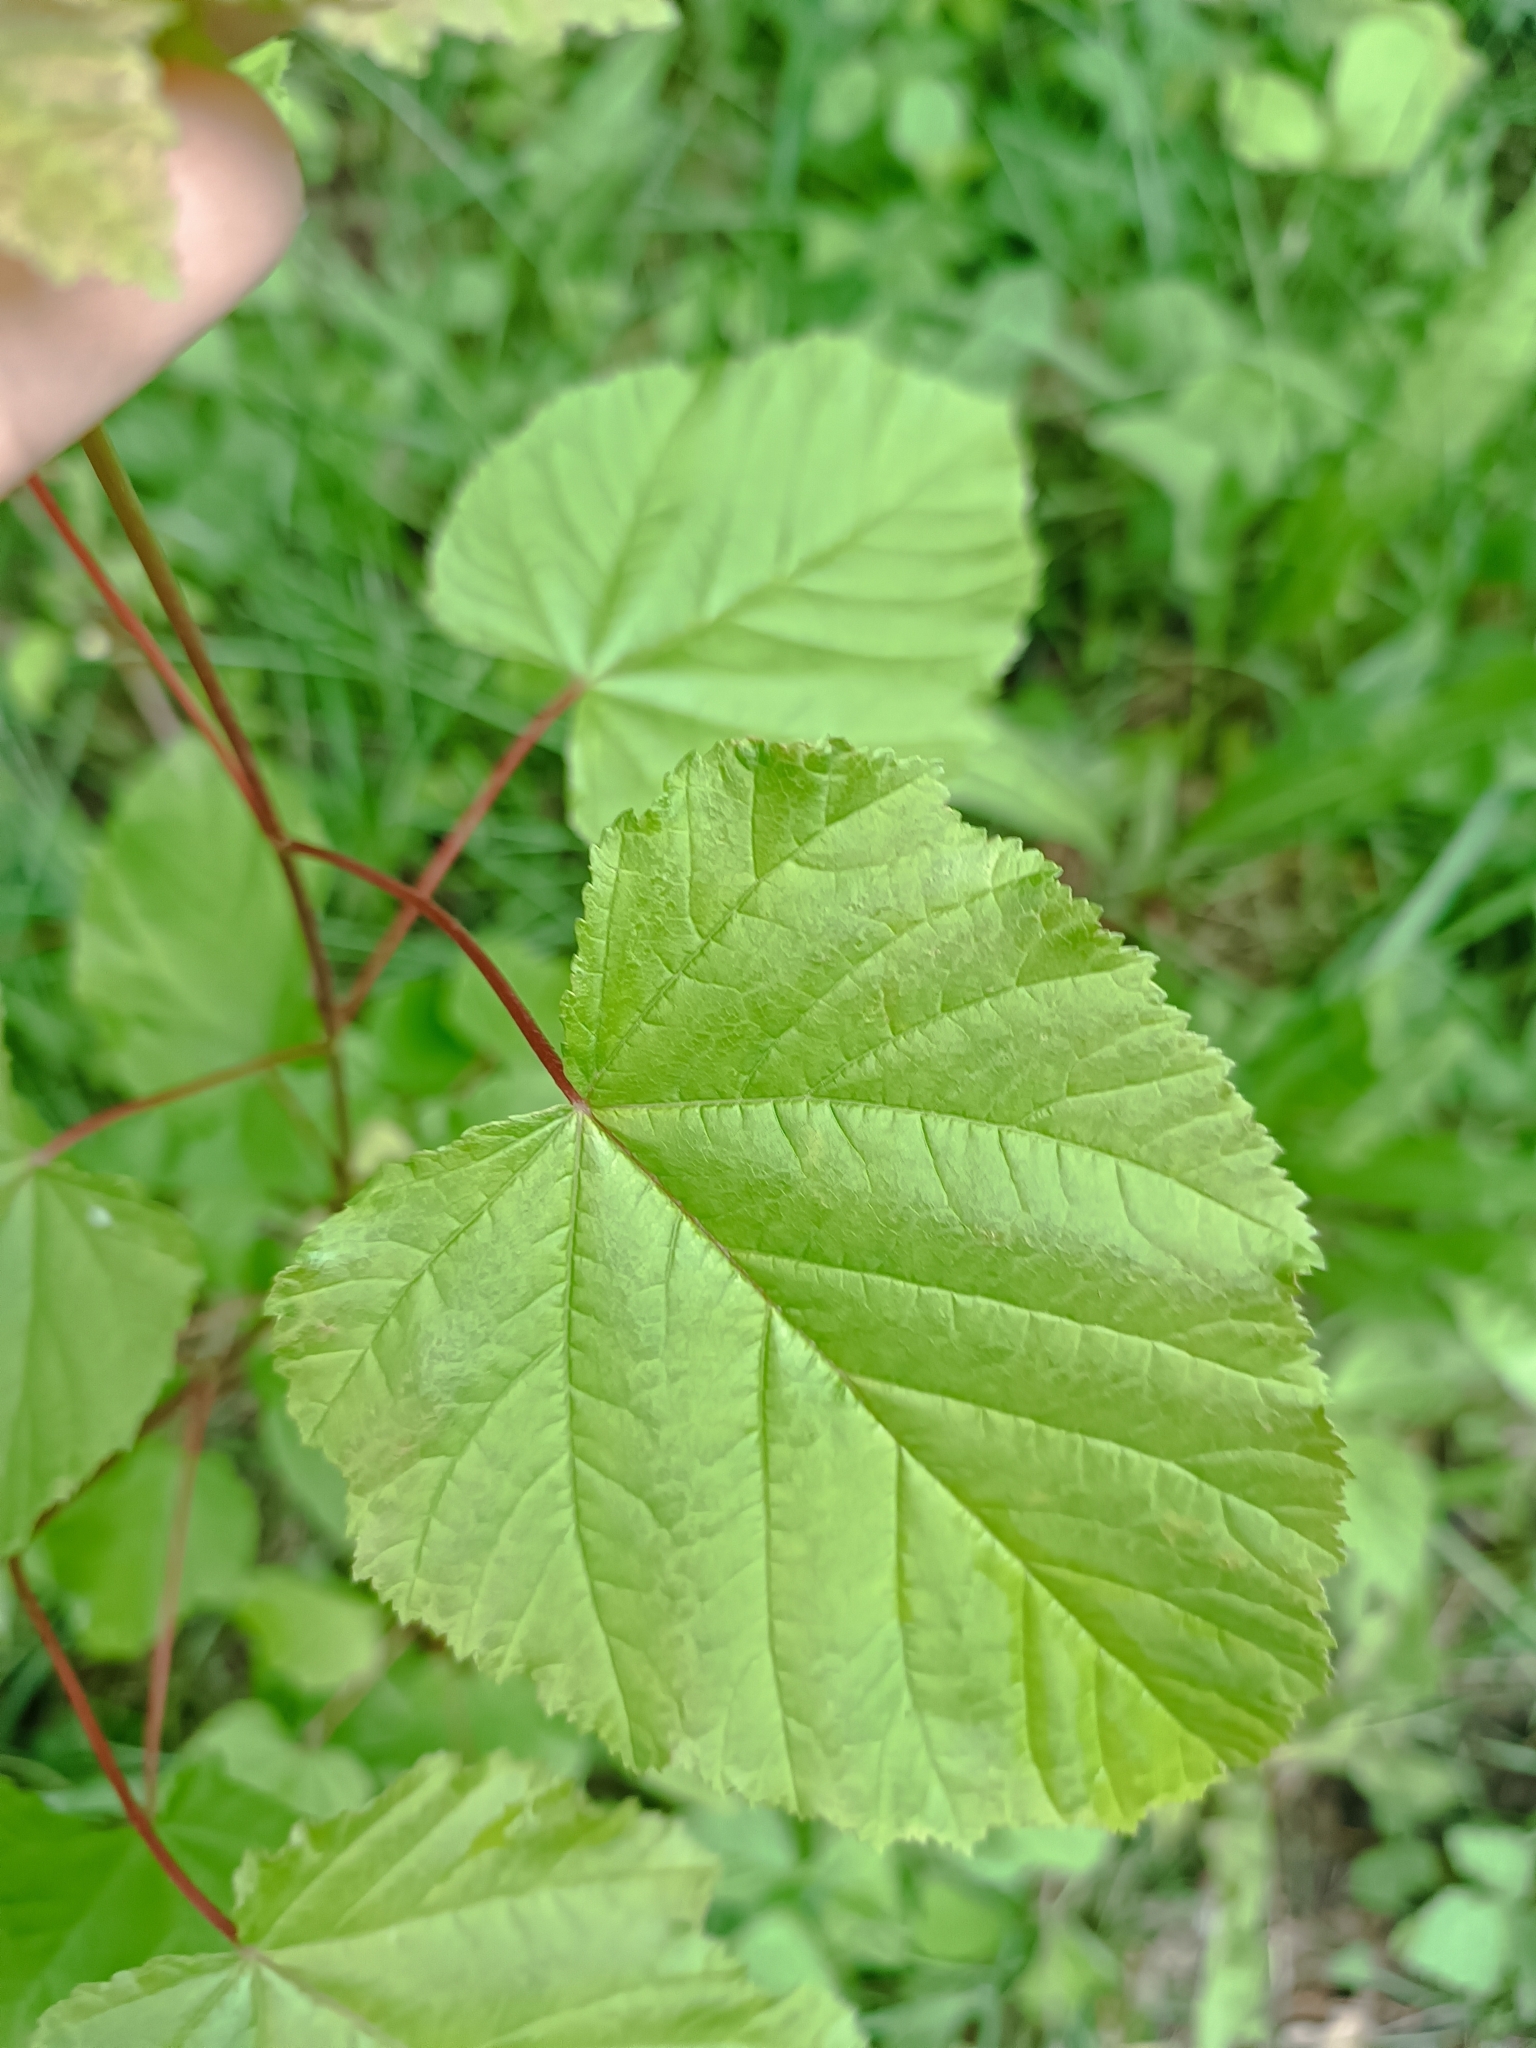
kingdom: Plantae
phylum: Tracheophyta
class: Magnoliopsida
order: Sapindales
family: Sapindaceae
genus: Acer
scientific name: Acer tataricum
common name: Tartar maple
